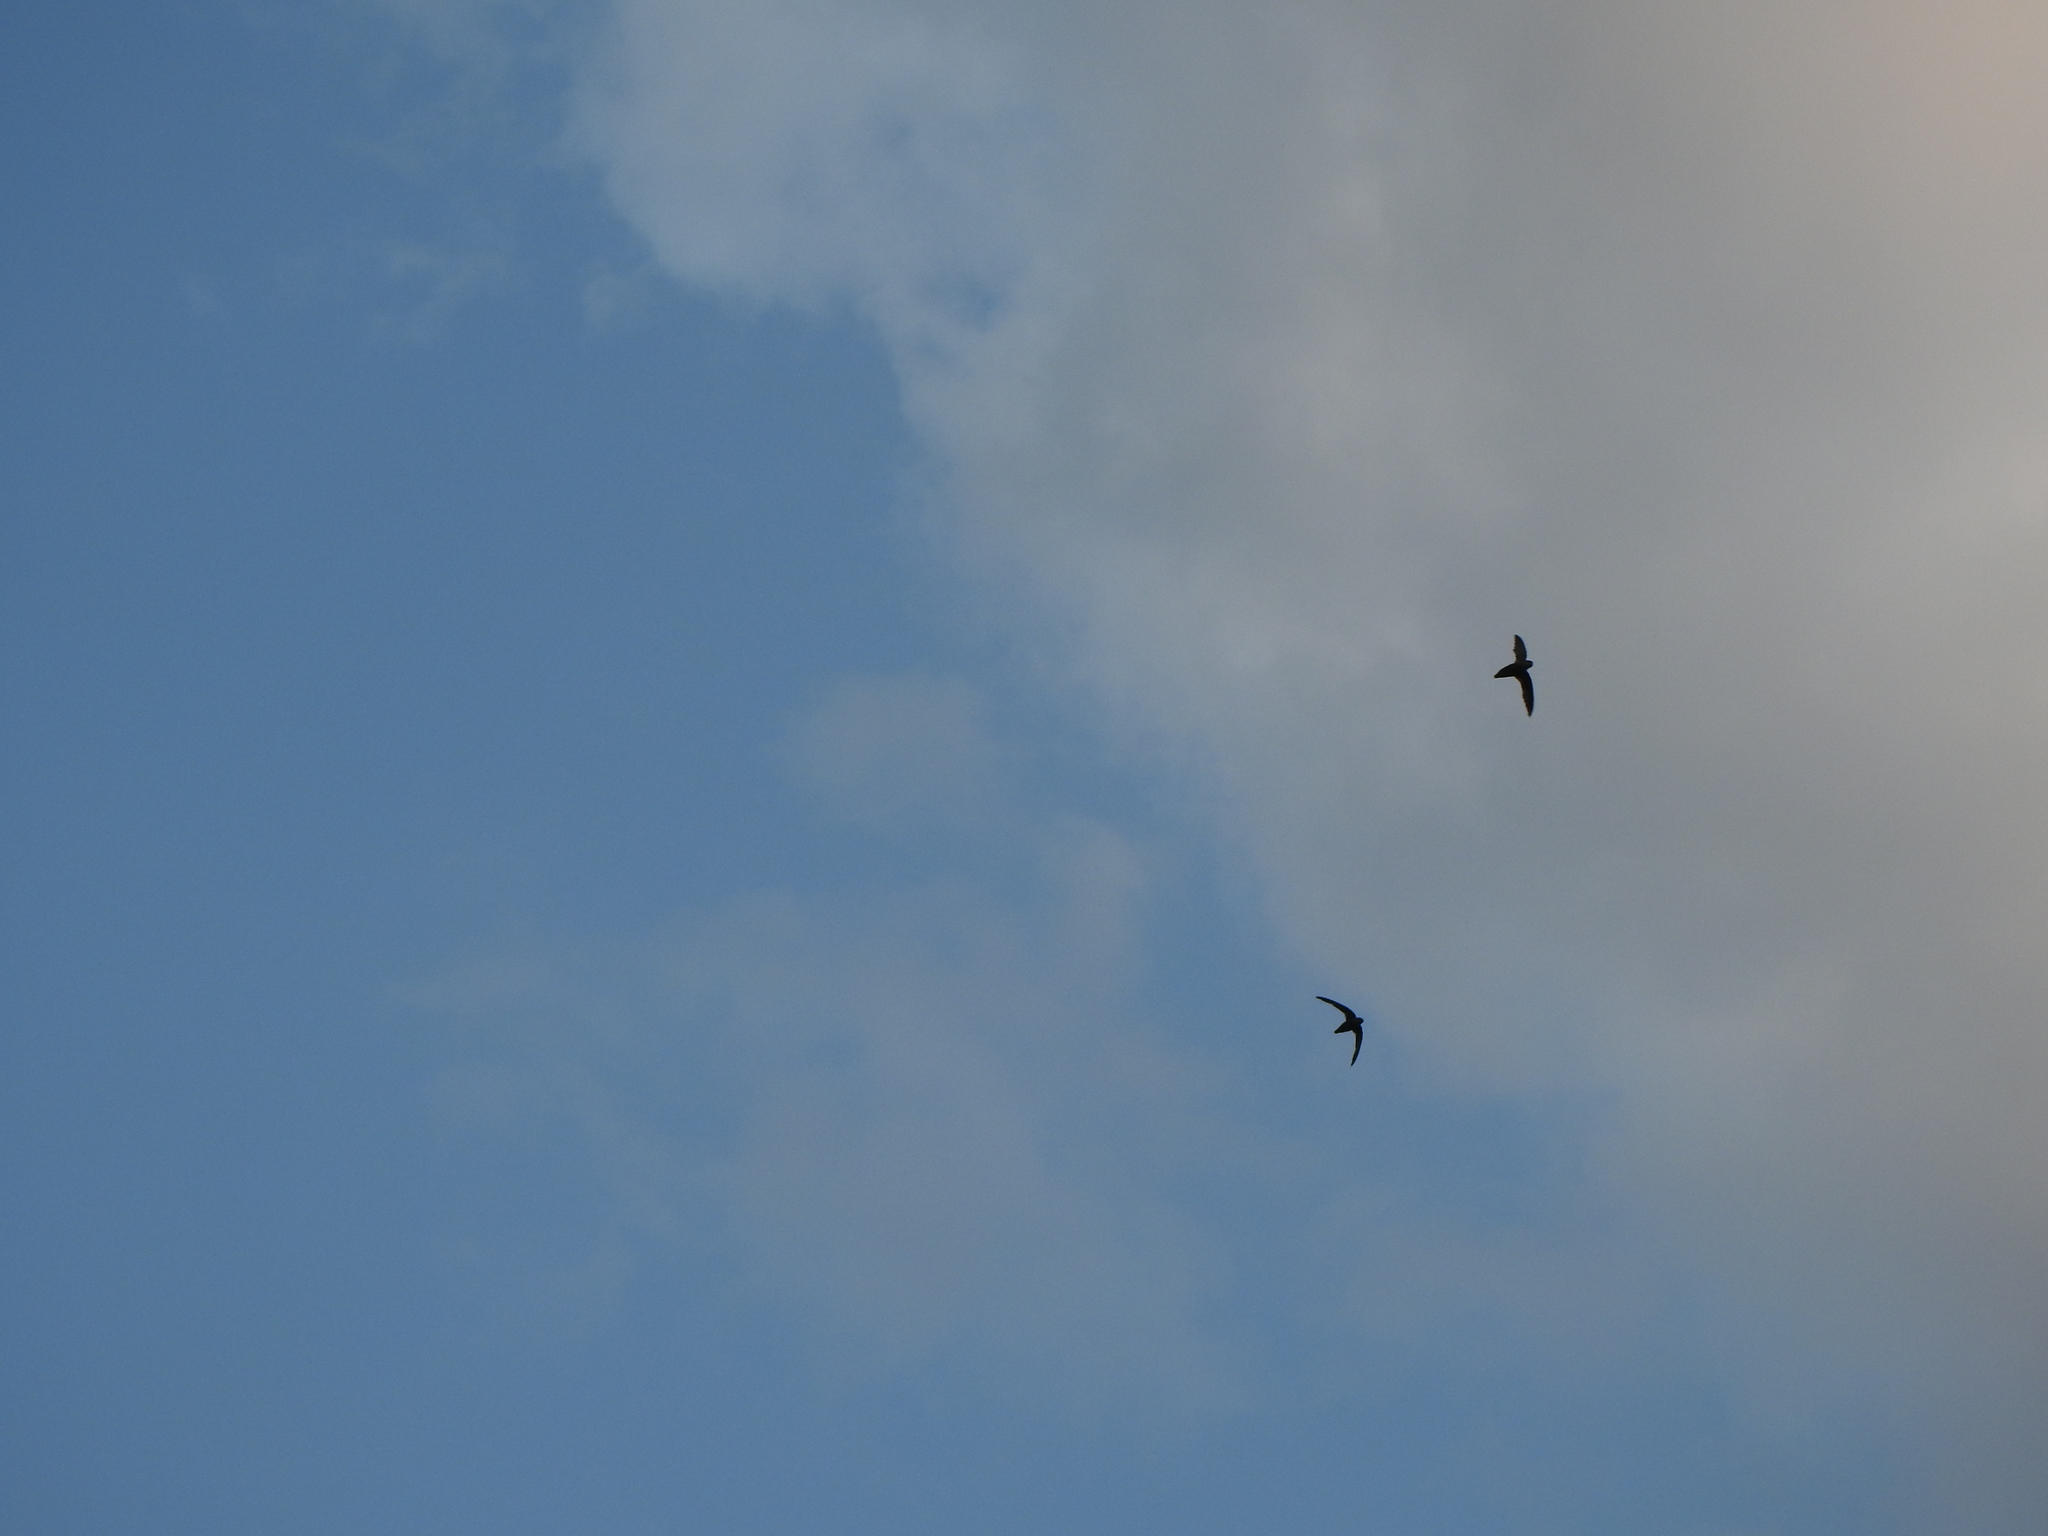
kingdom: Animalia
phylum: Chordata
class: Aves
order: Apodiformes
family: Apodidae
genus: Chaetura
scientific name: Chaetura pelagica
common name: Chimney swift
